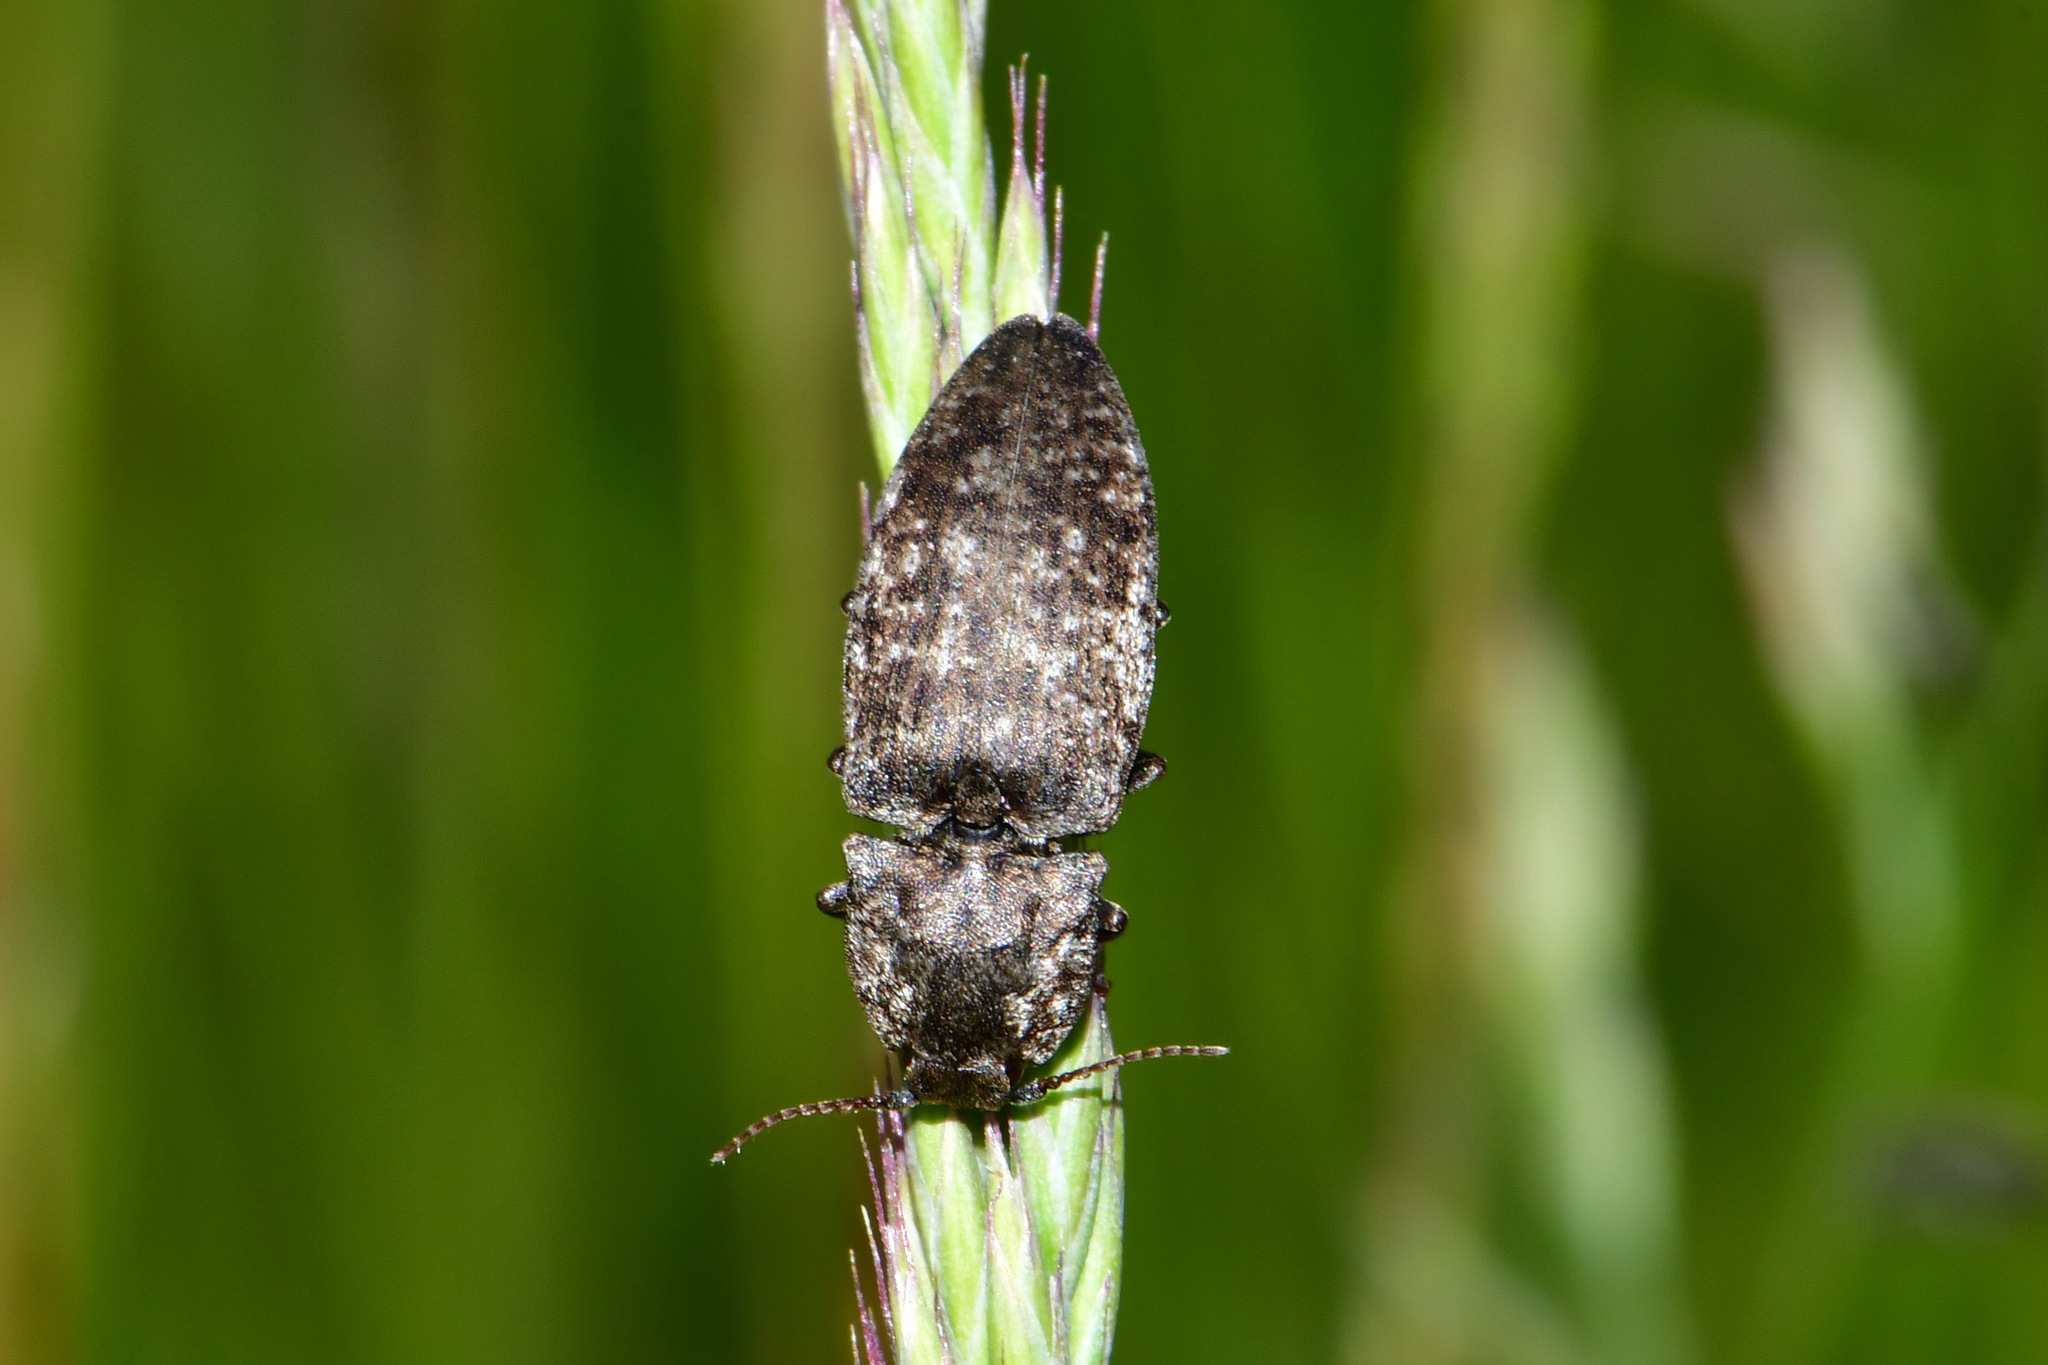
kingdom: Animalia
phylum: Arthropoda
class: Insecta
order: Coleoptera
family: Elateridae
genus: Agrypnus
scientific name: Agrypnus murinus
